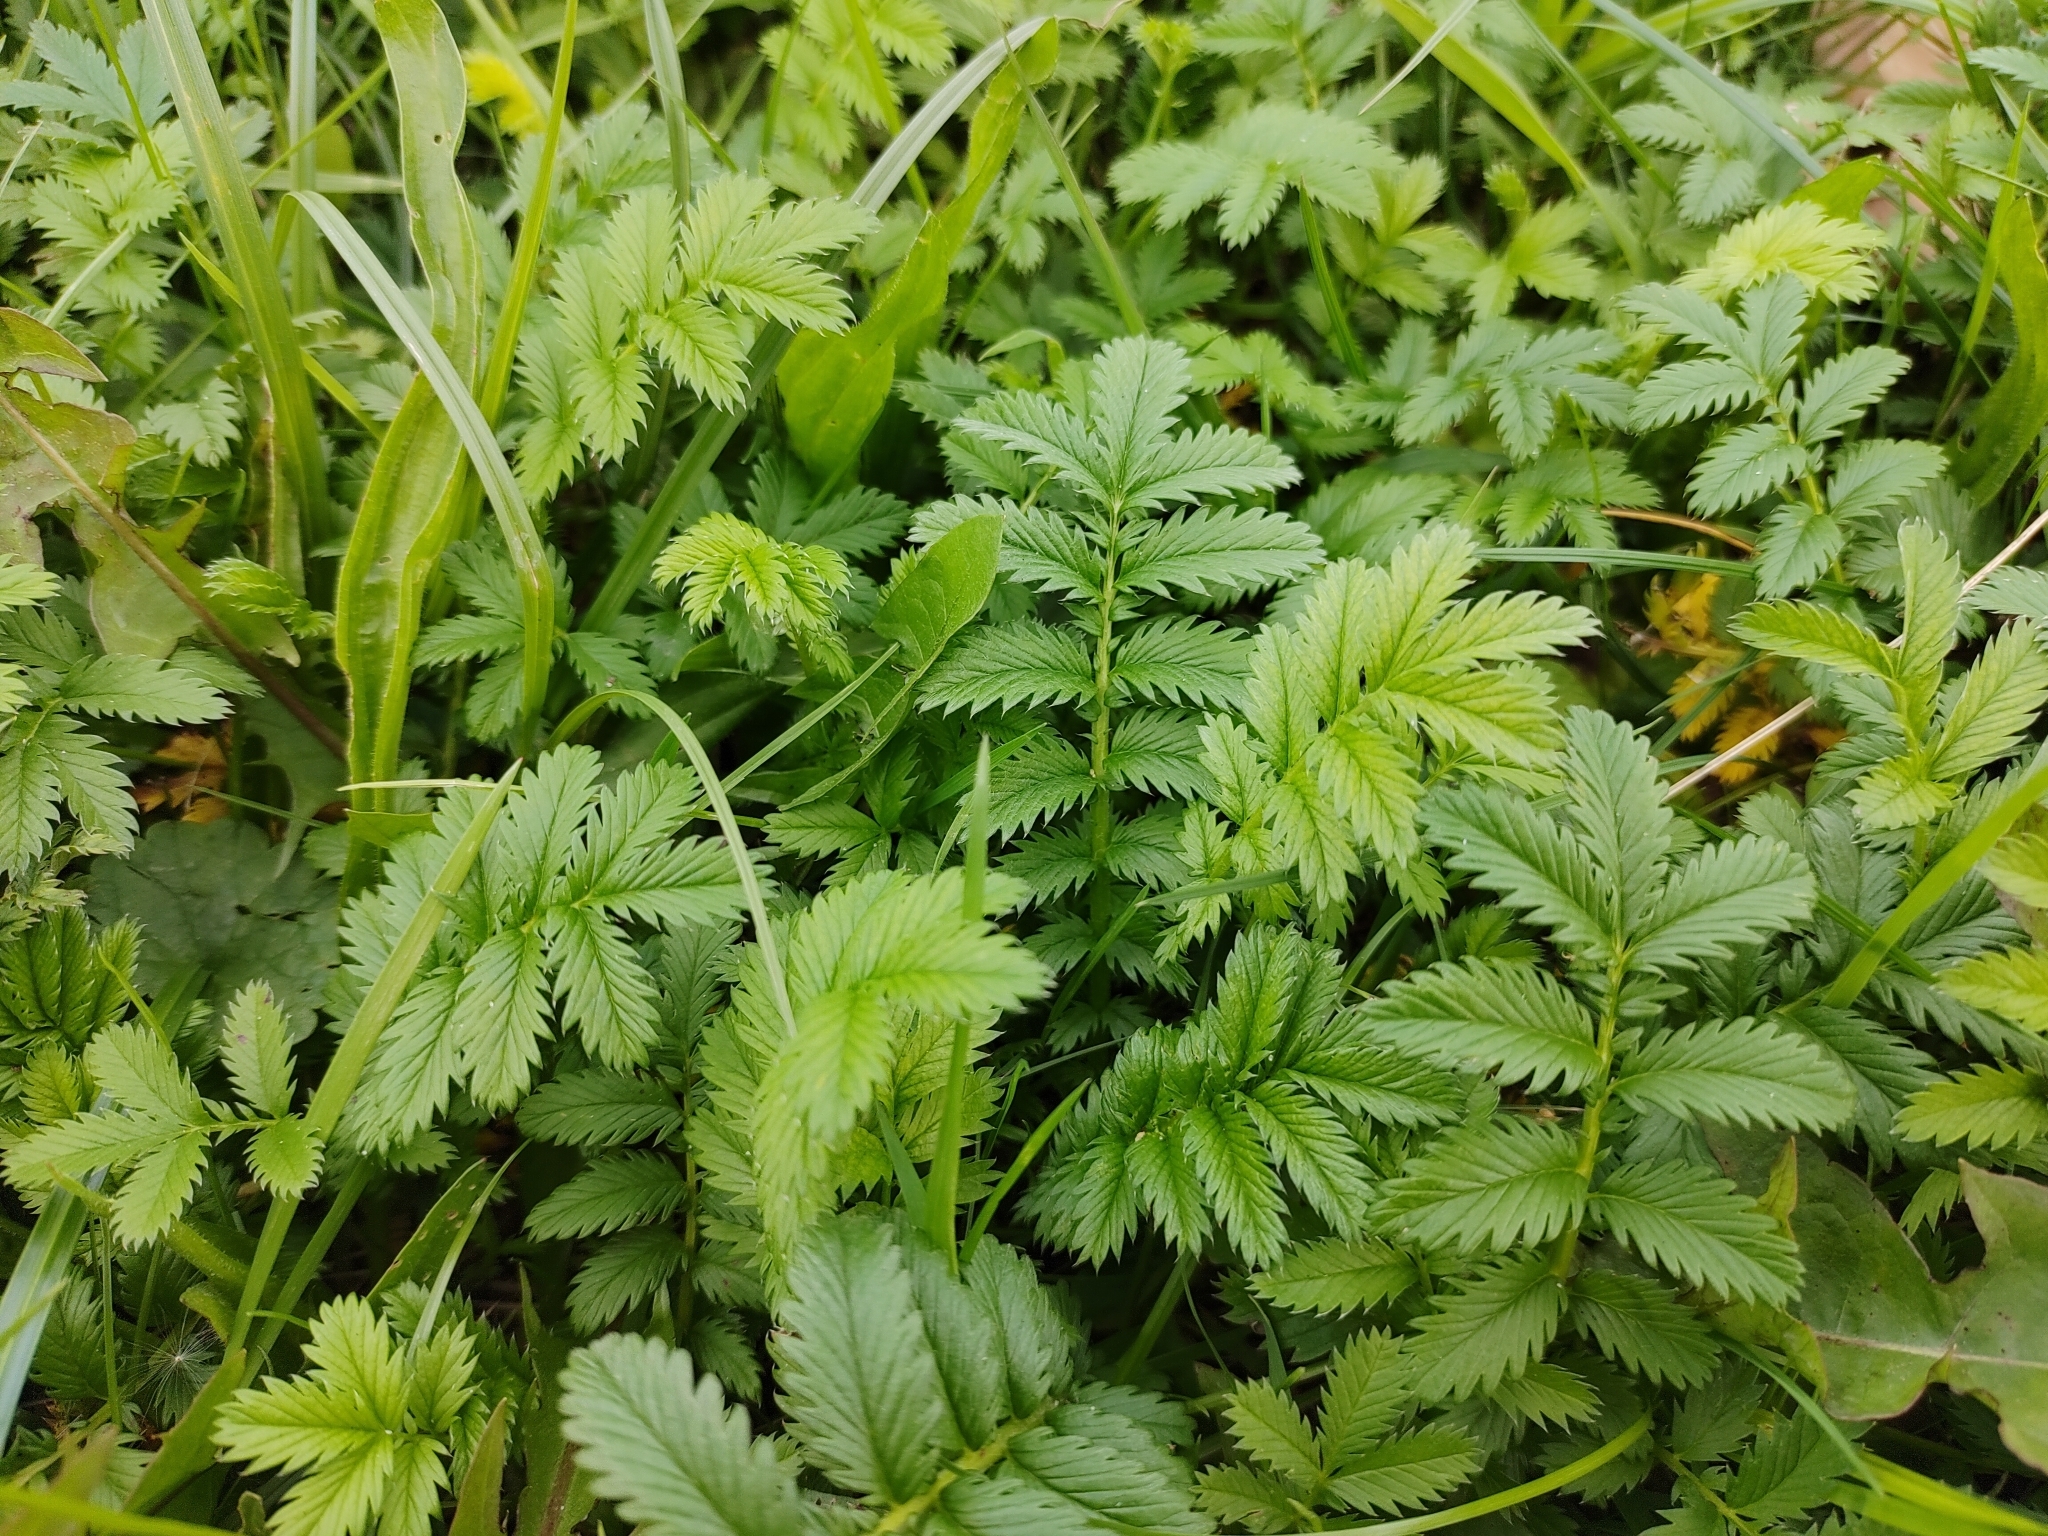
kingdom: Plantae
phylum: Tracheophyta
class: Magnoliopsida
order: Rosales
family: Rosaceae
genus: Argentina
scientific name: Argentina anserina
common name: Common silverweed
